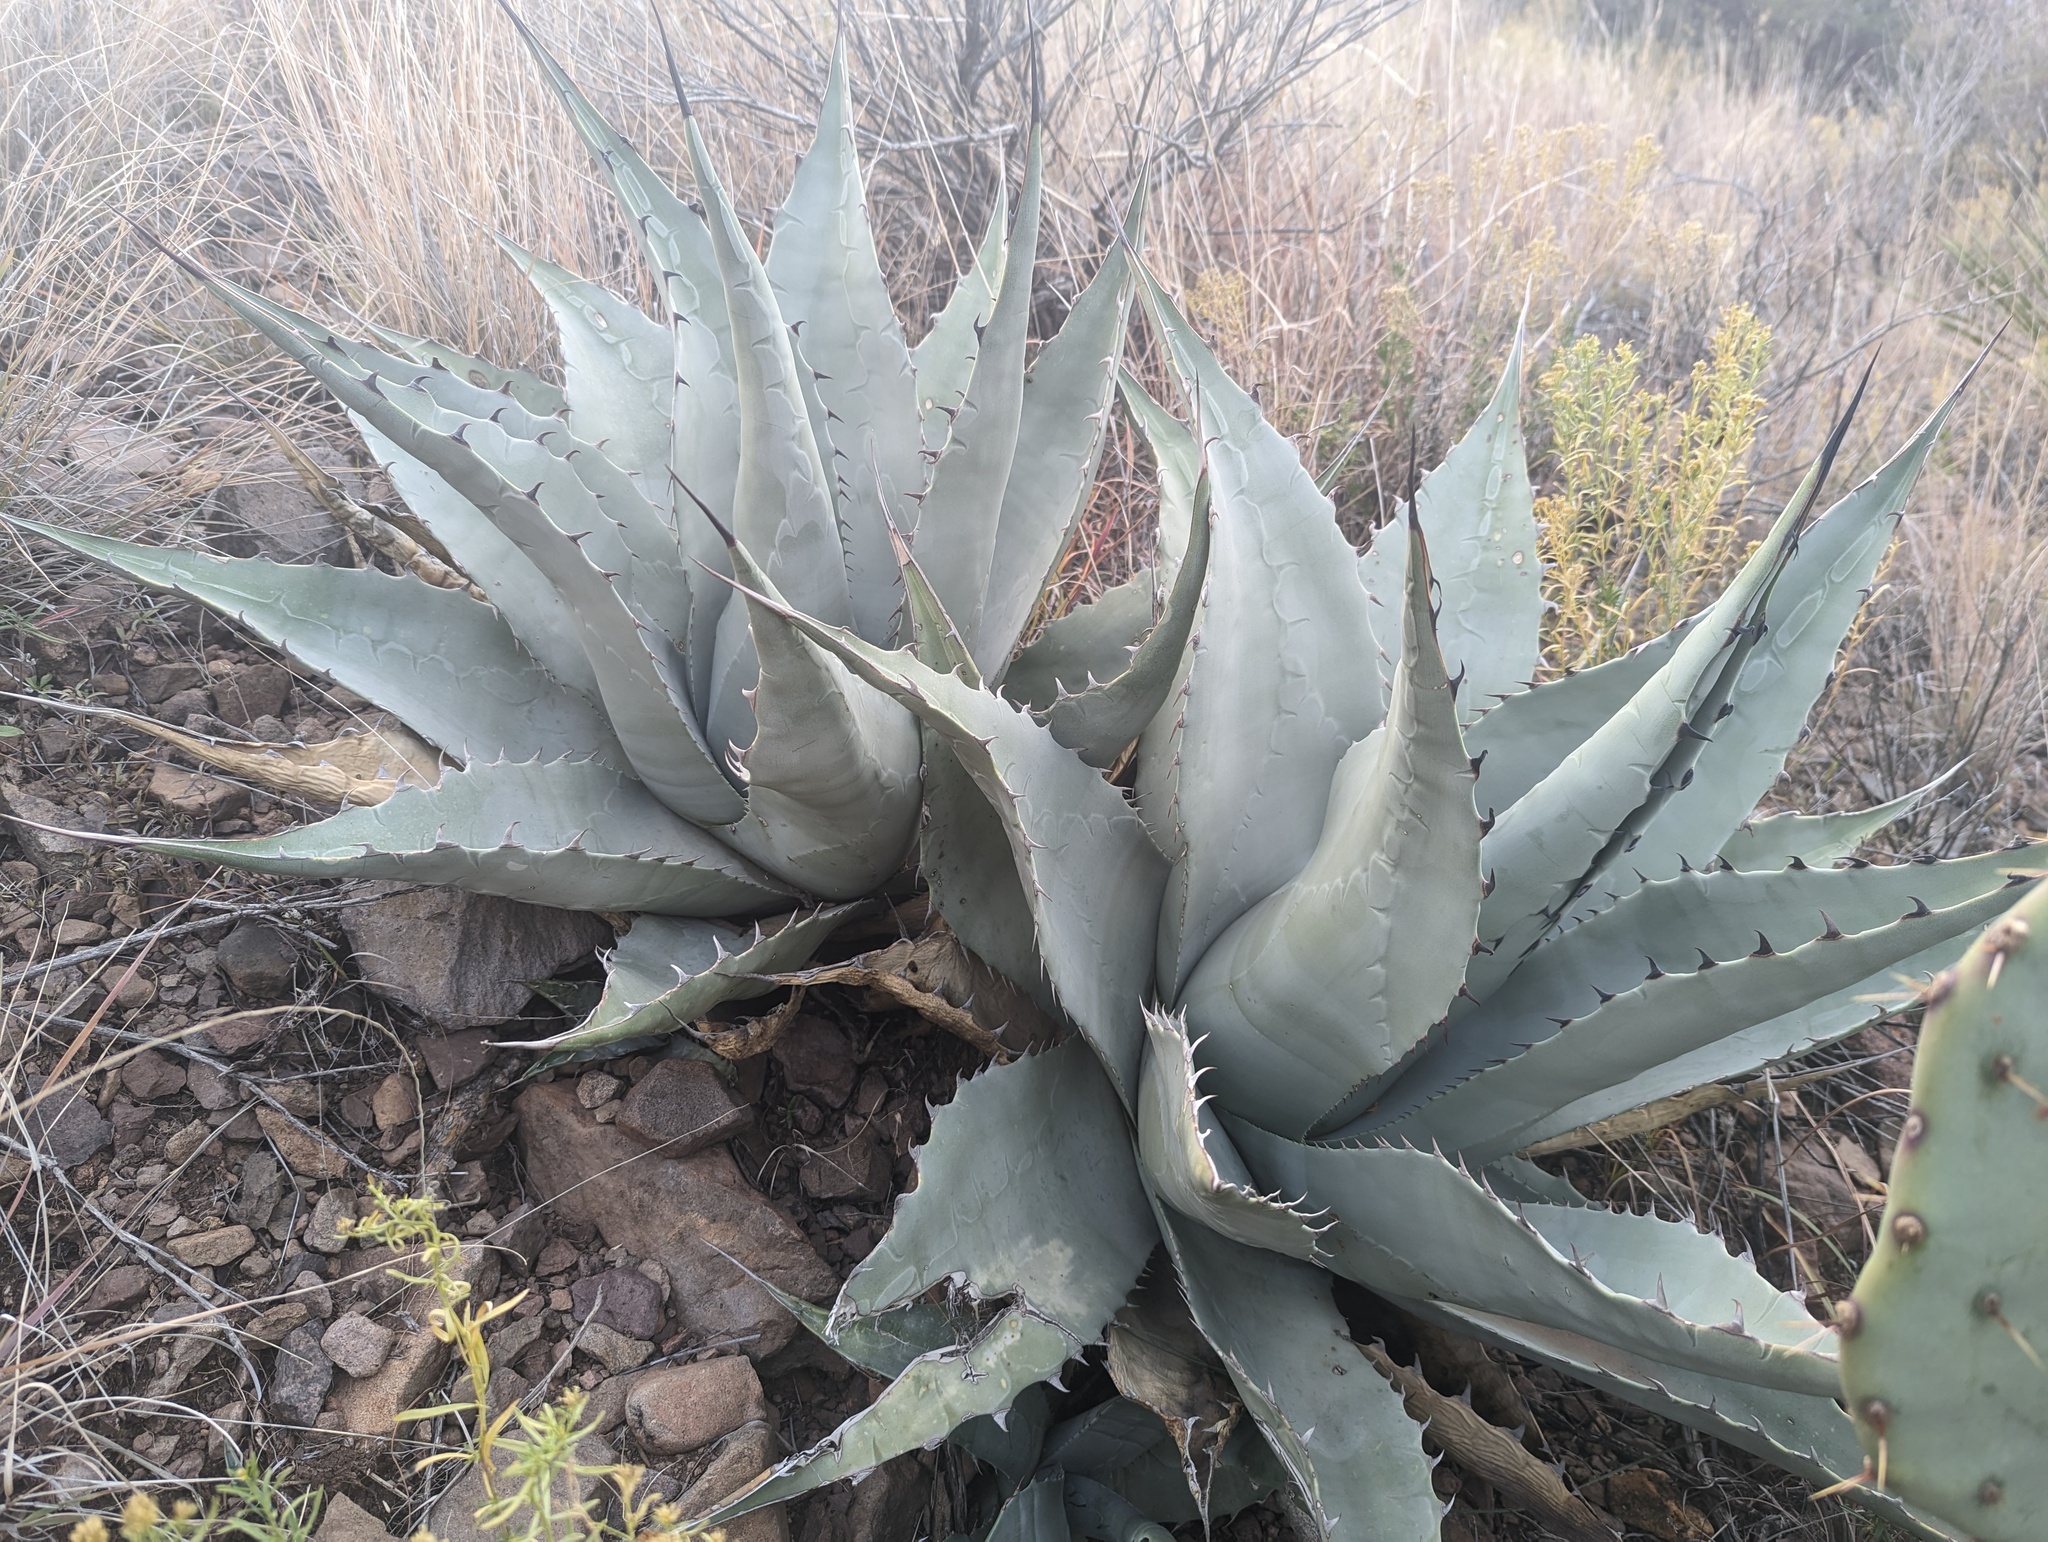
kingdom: Plantae
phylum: Tracheophyta
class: Liliopsida
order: Asparagales
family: Asparagaceae
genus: Agave
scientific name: Agave havardiana
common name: Havard agave
